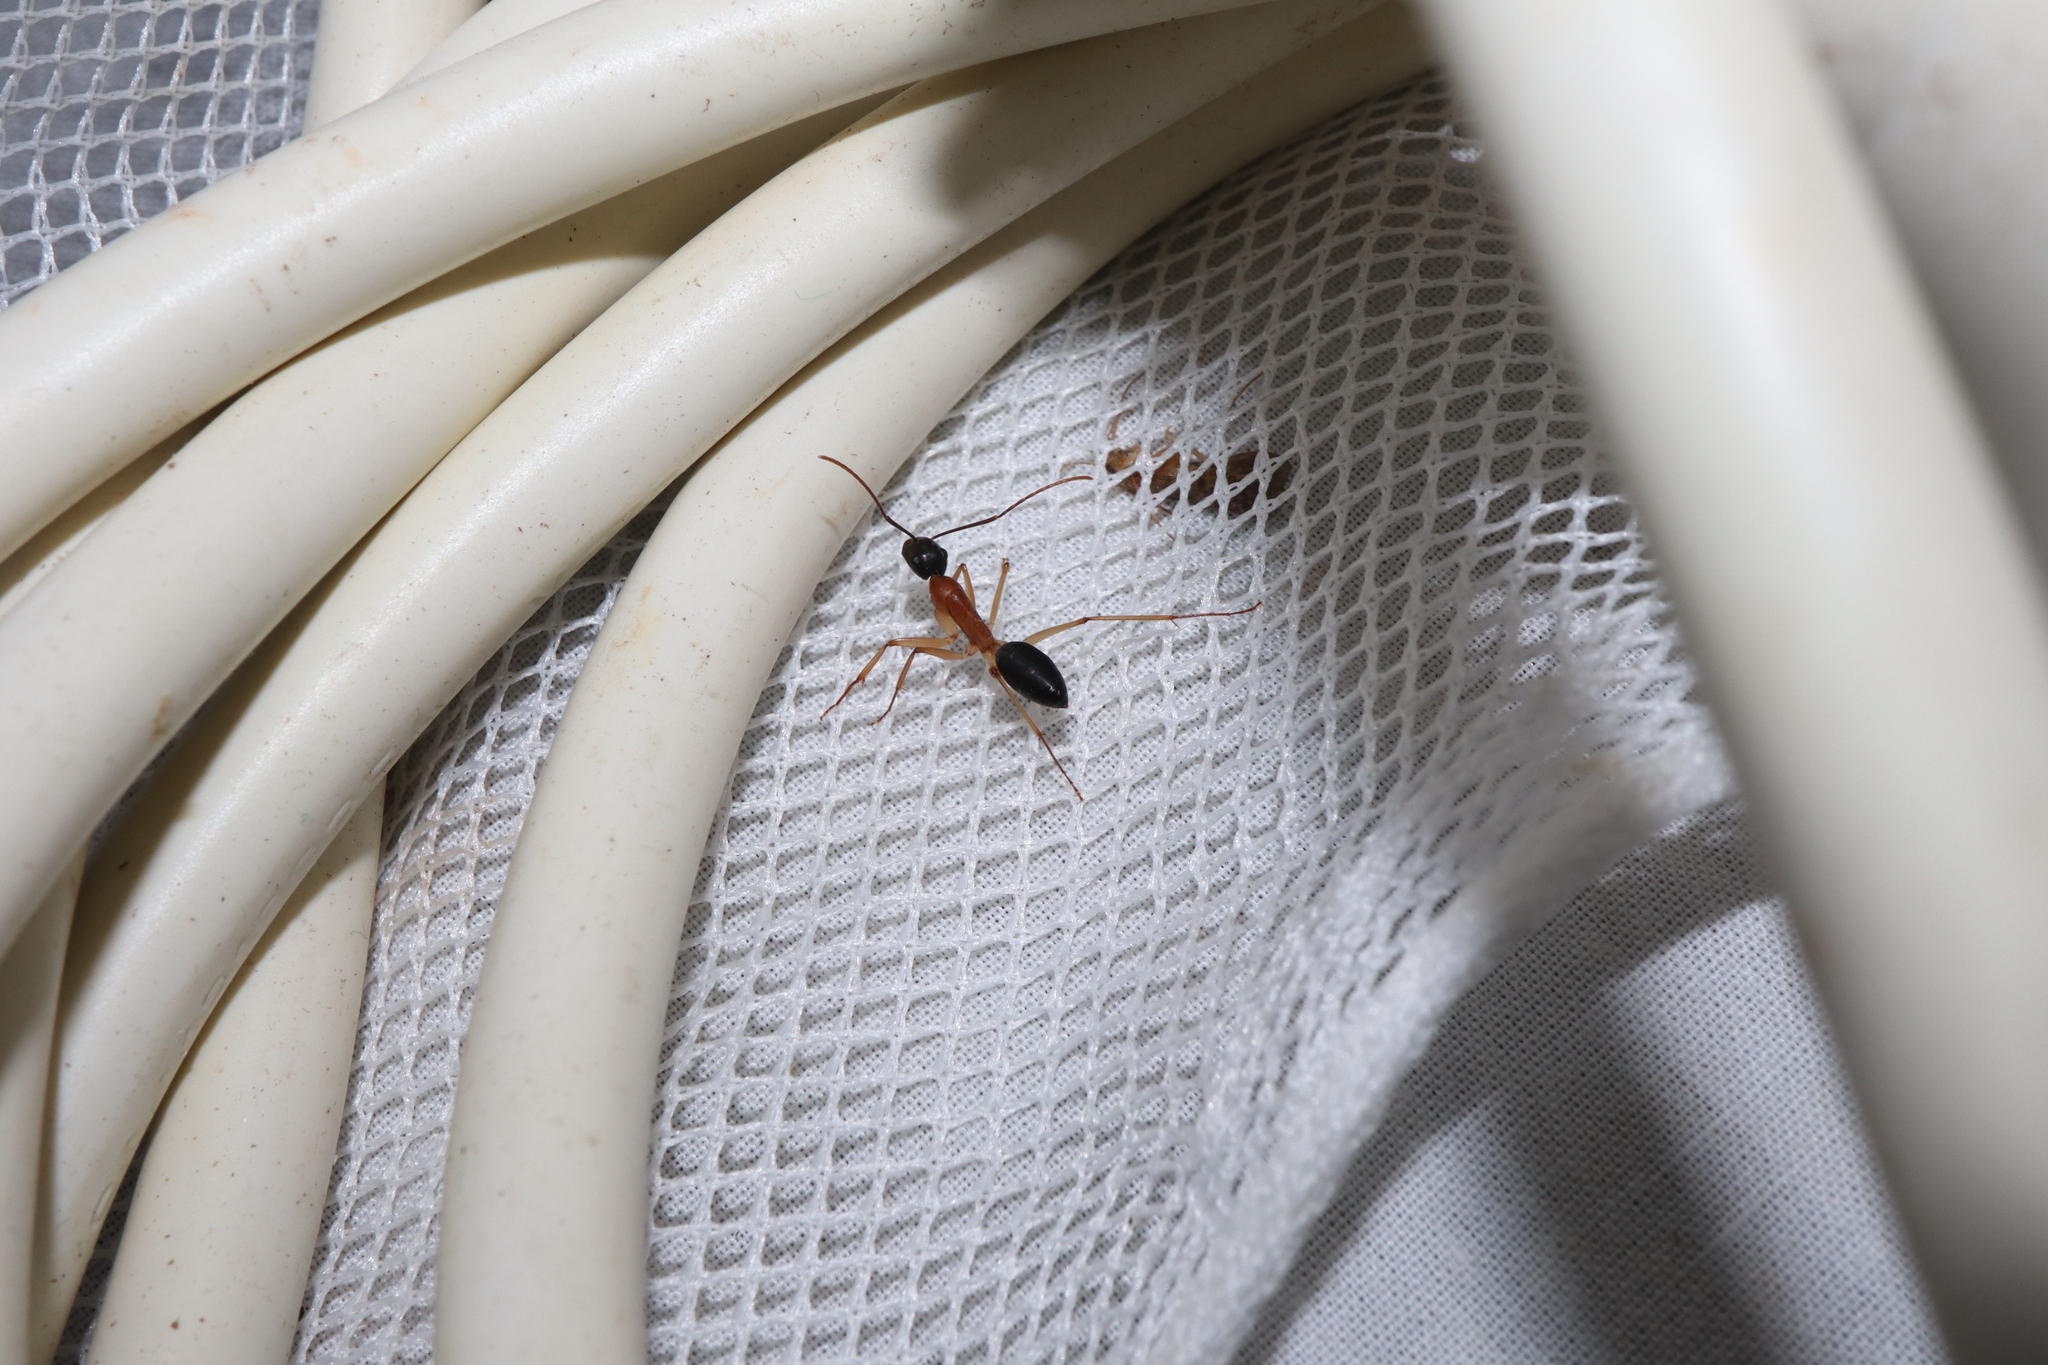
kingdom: Animalia
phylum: Arthropoda
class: Insecta
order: Hymenoptera
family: Formicidae
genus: Camponotus
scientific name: Camponotus nigriceps
